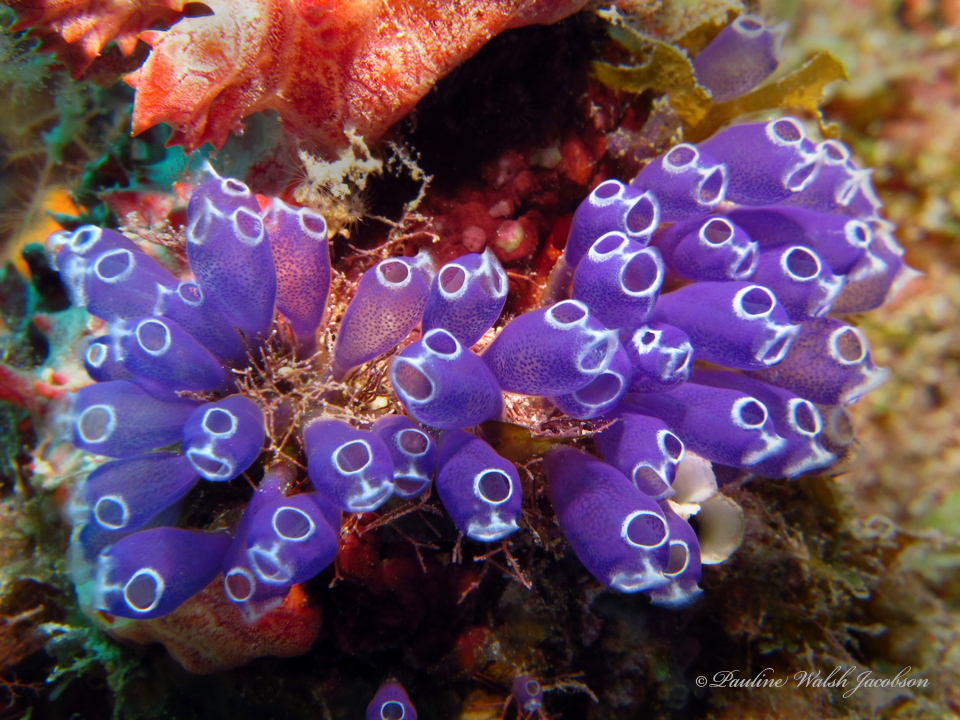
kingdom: Animalia
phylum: Chordata
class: Ascidiacea
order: Aplousobranchia
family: Clavelinidae
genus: Clavelina
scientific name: Clavelina puertosecensis
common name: Blue bell tunicate
